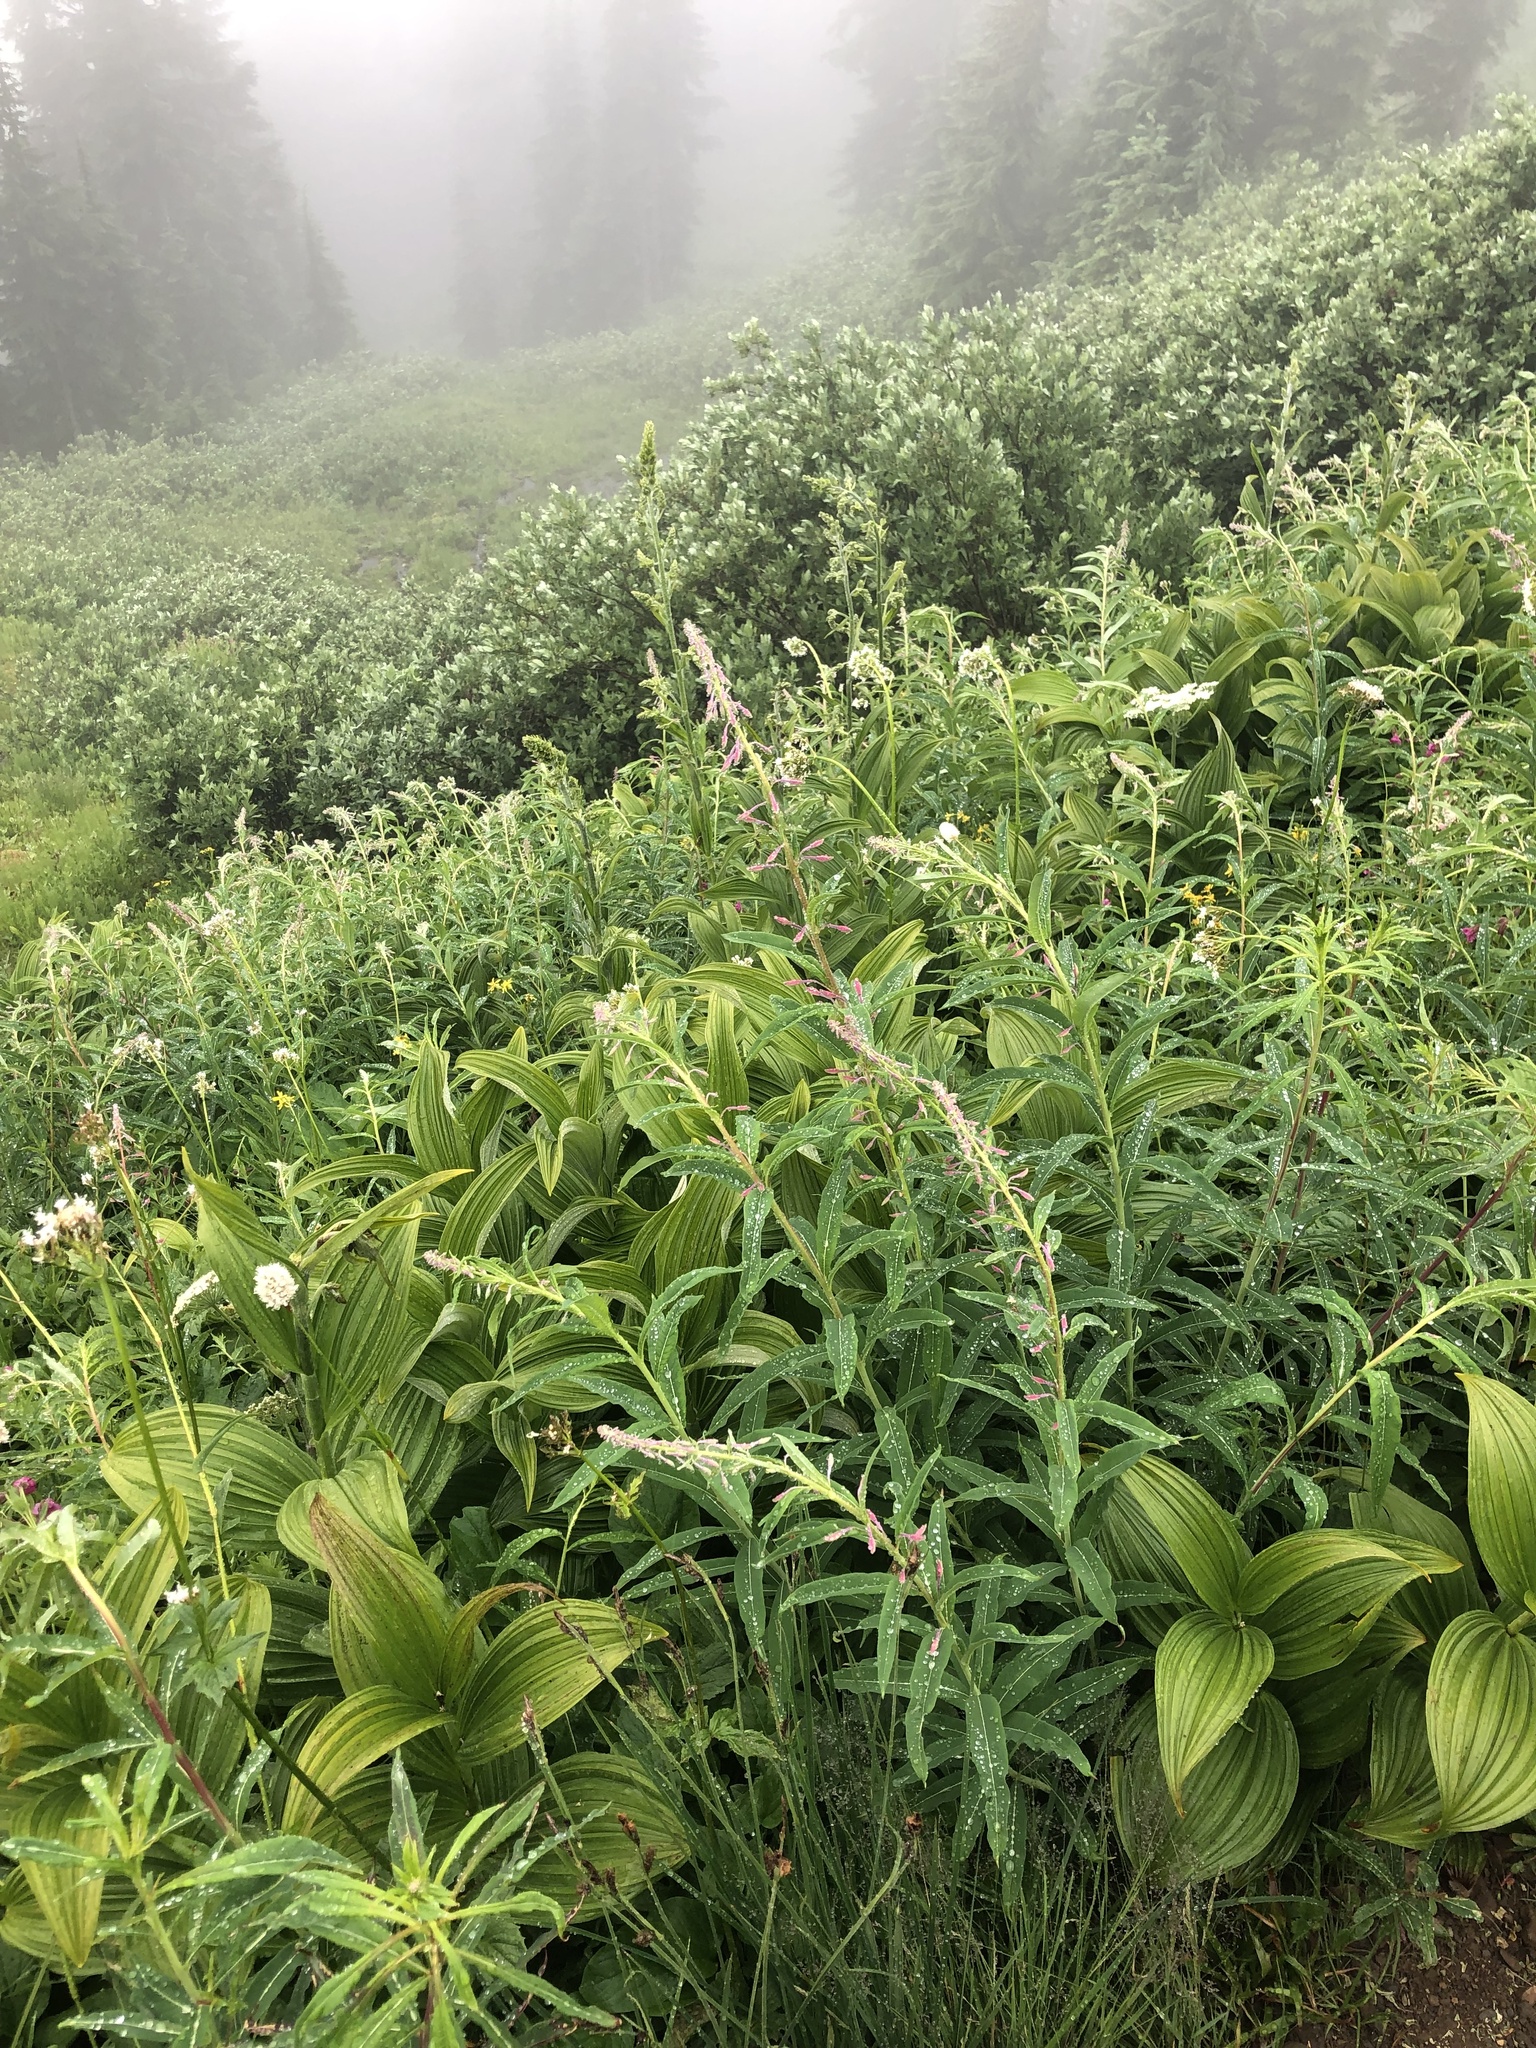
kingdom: Plantae
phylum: Tracheophyta
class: Magnoliopsida
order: Myrtales
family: Onagraceae
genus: Chamaenerion
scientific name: Chamaenerion angustifolium
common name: Fireweed
